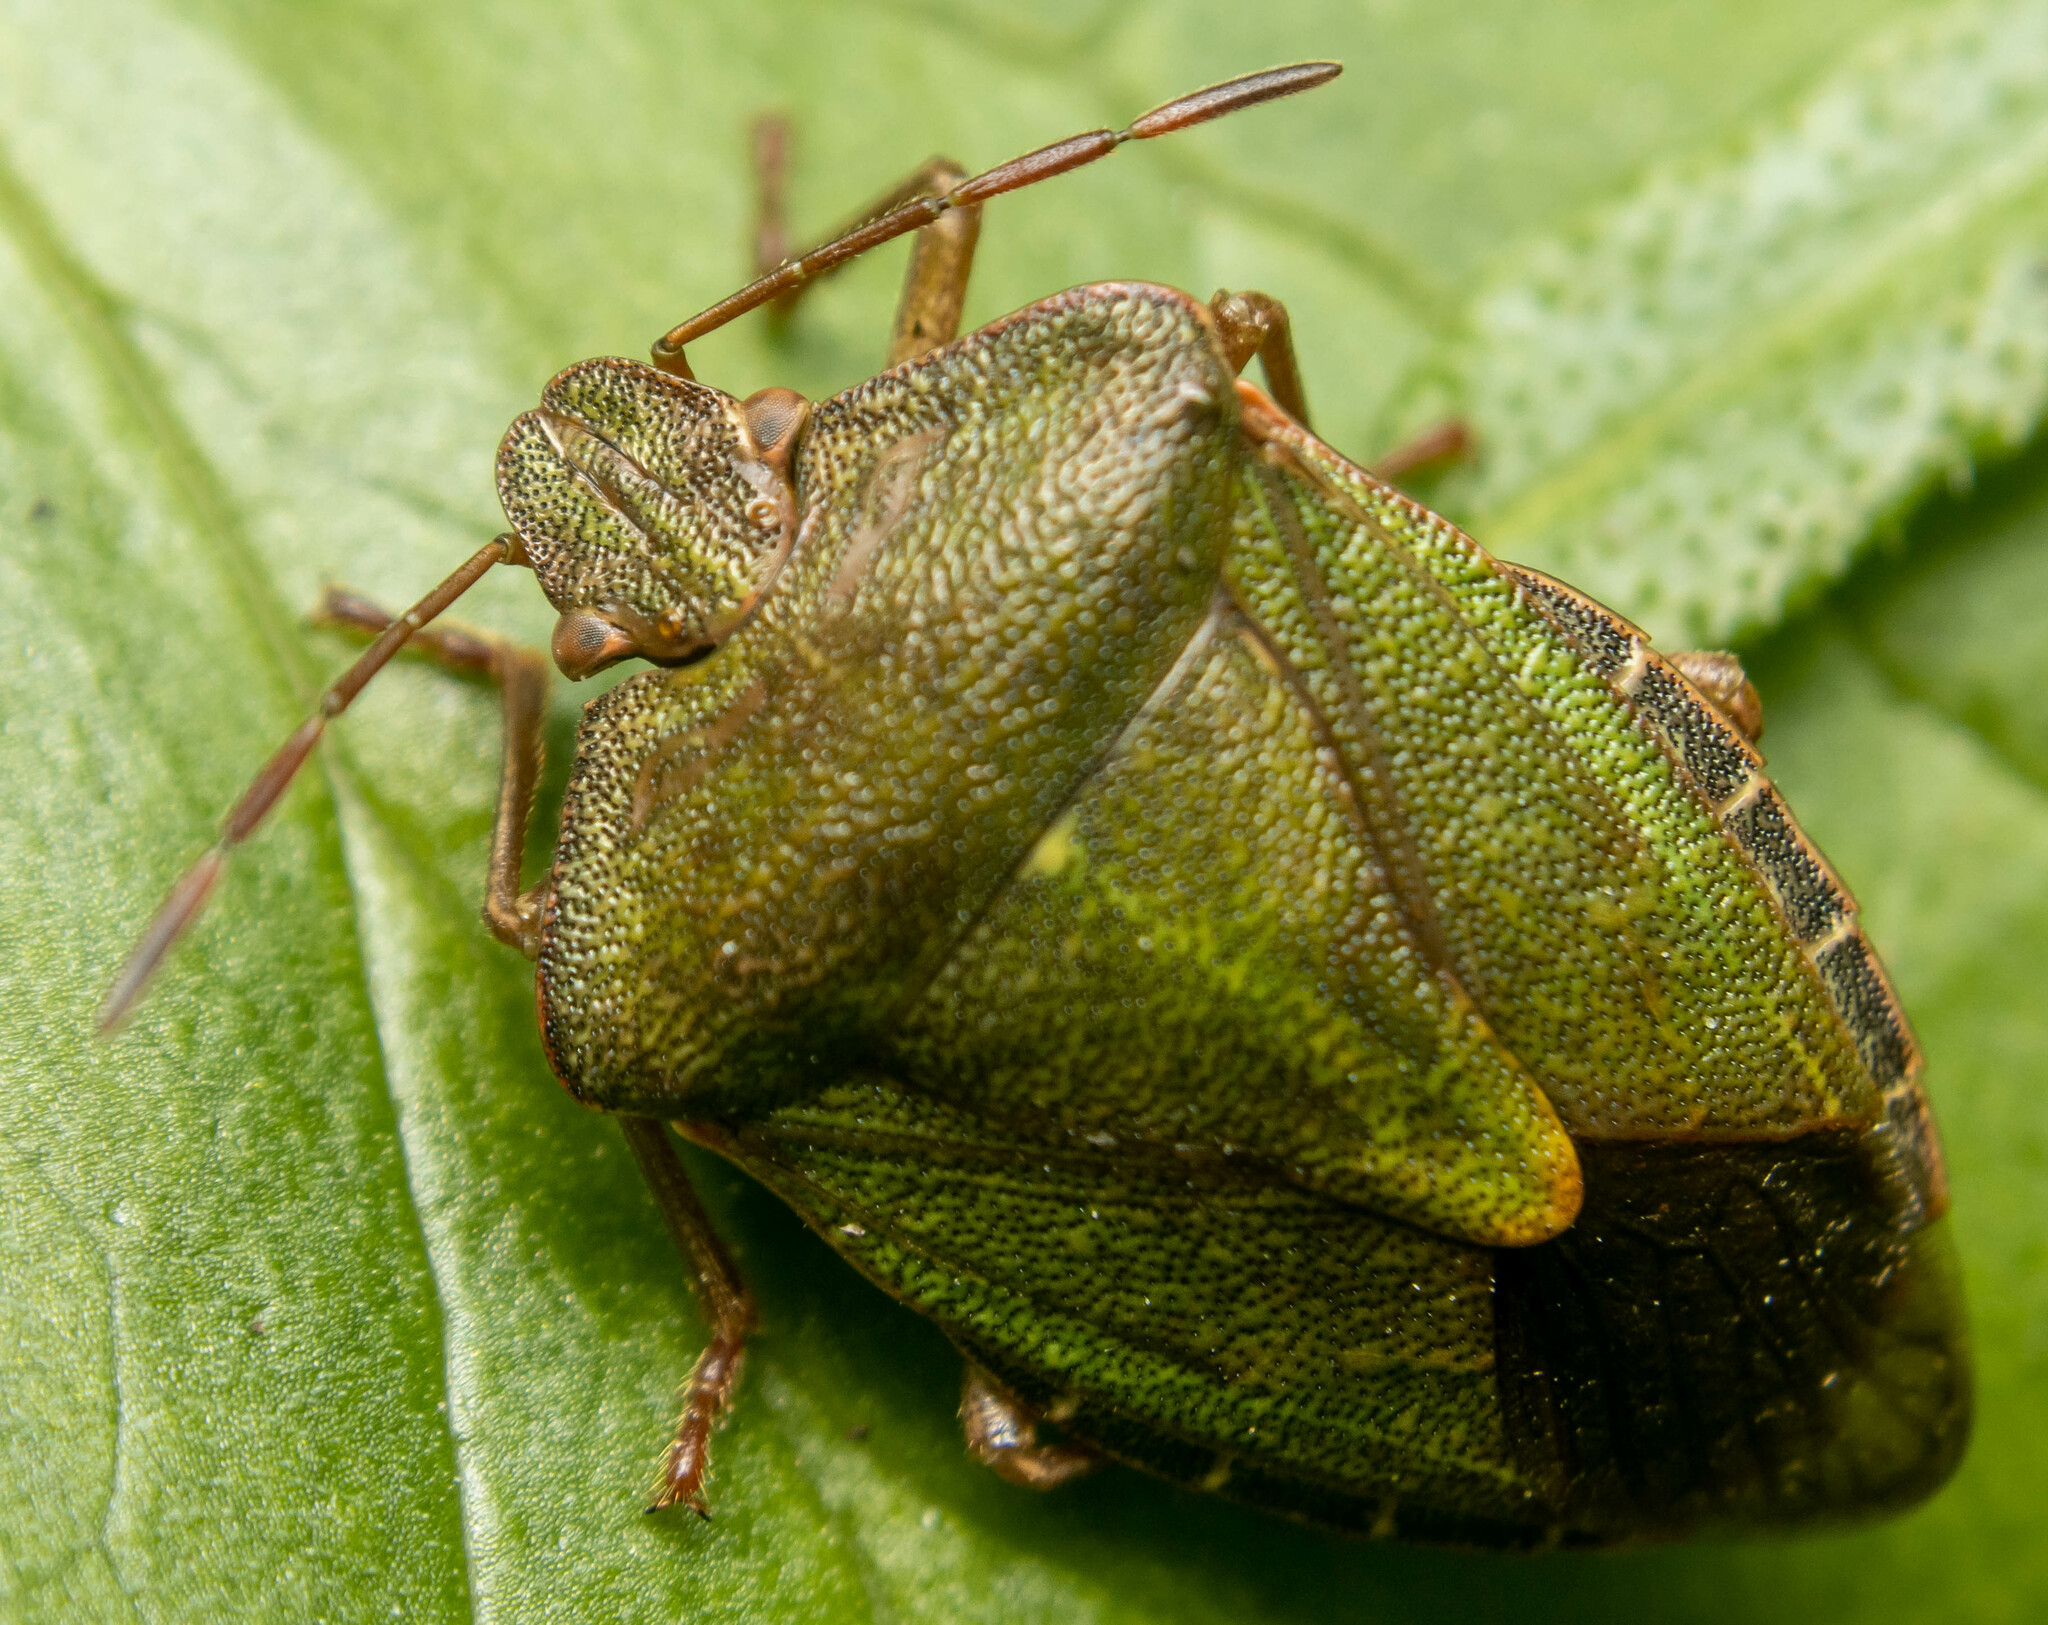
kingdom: Animalia
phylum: Arthropoda
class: Insecta
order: Hemiptera
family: Pentatomidae
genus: Palomena
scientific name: Palomena prasina
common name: Green shieldbug
